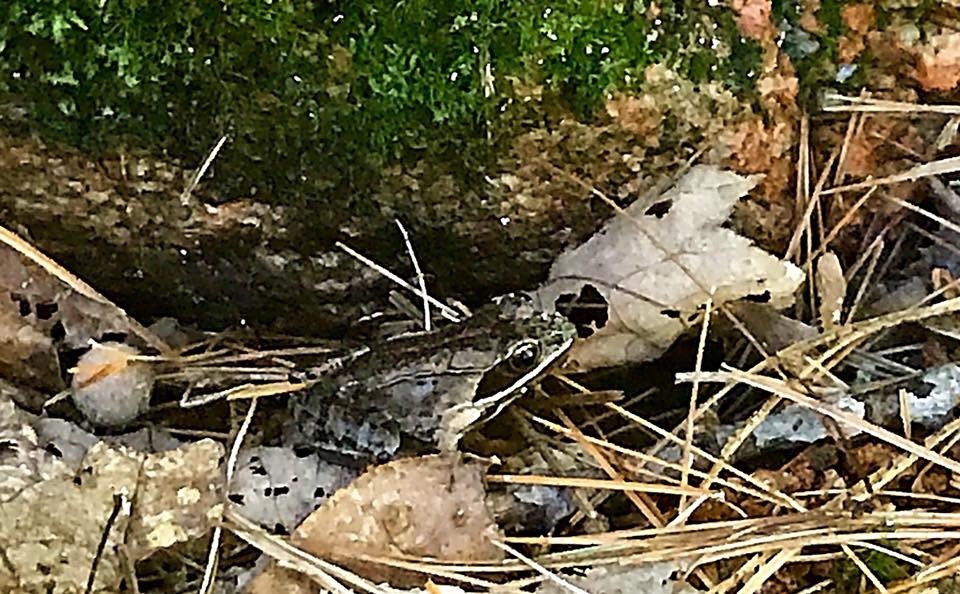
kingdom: Animalia
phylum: Chordata
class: Amphibia
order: Anura
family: Ranidae
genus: Lithobates
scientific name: Lithobates sylvaticus
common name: Wood frog
